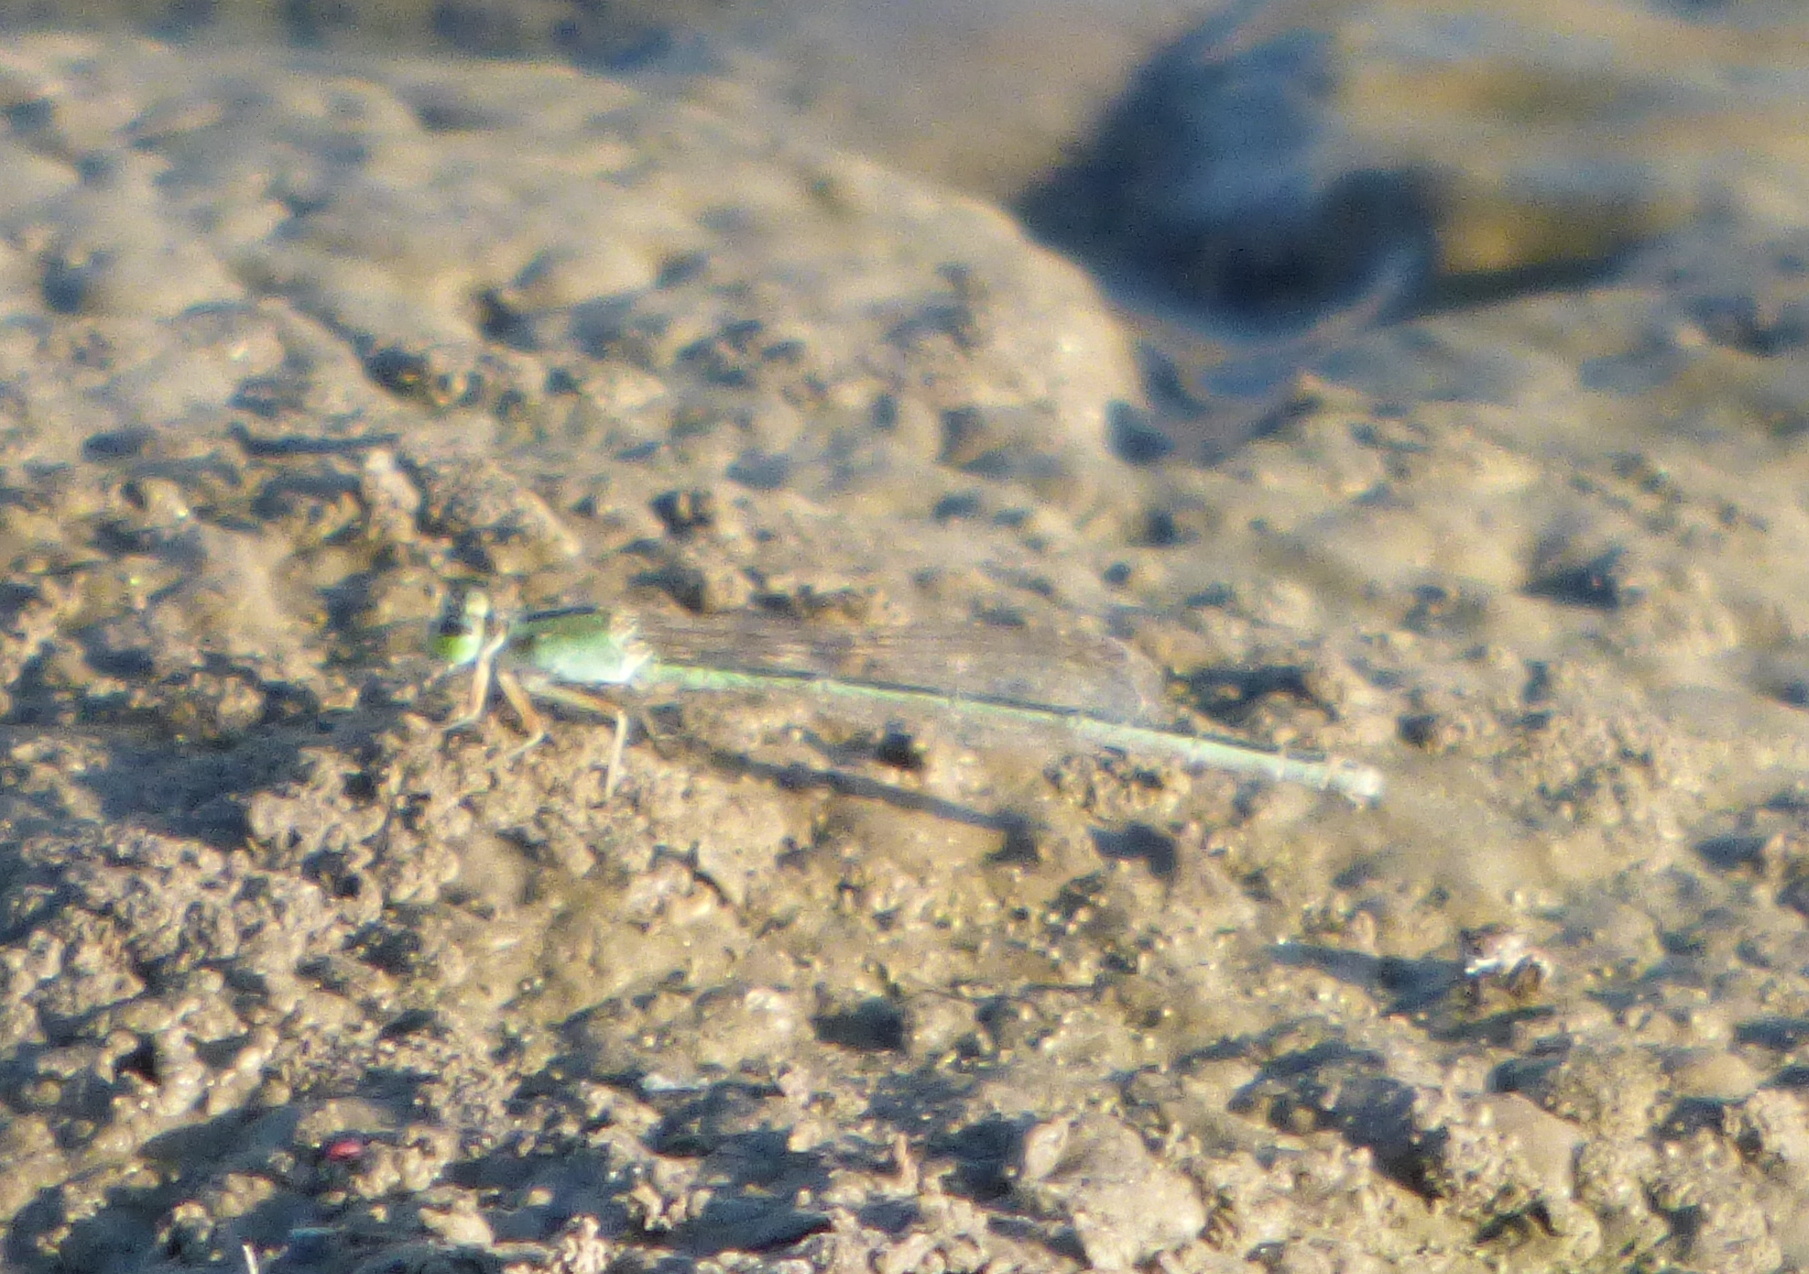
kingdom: Animalia
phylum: Arthropoda
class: Insecta
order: Odonata
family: Coenagrionidae
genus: Ischnura
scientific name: Ischnura fluviatilis
